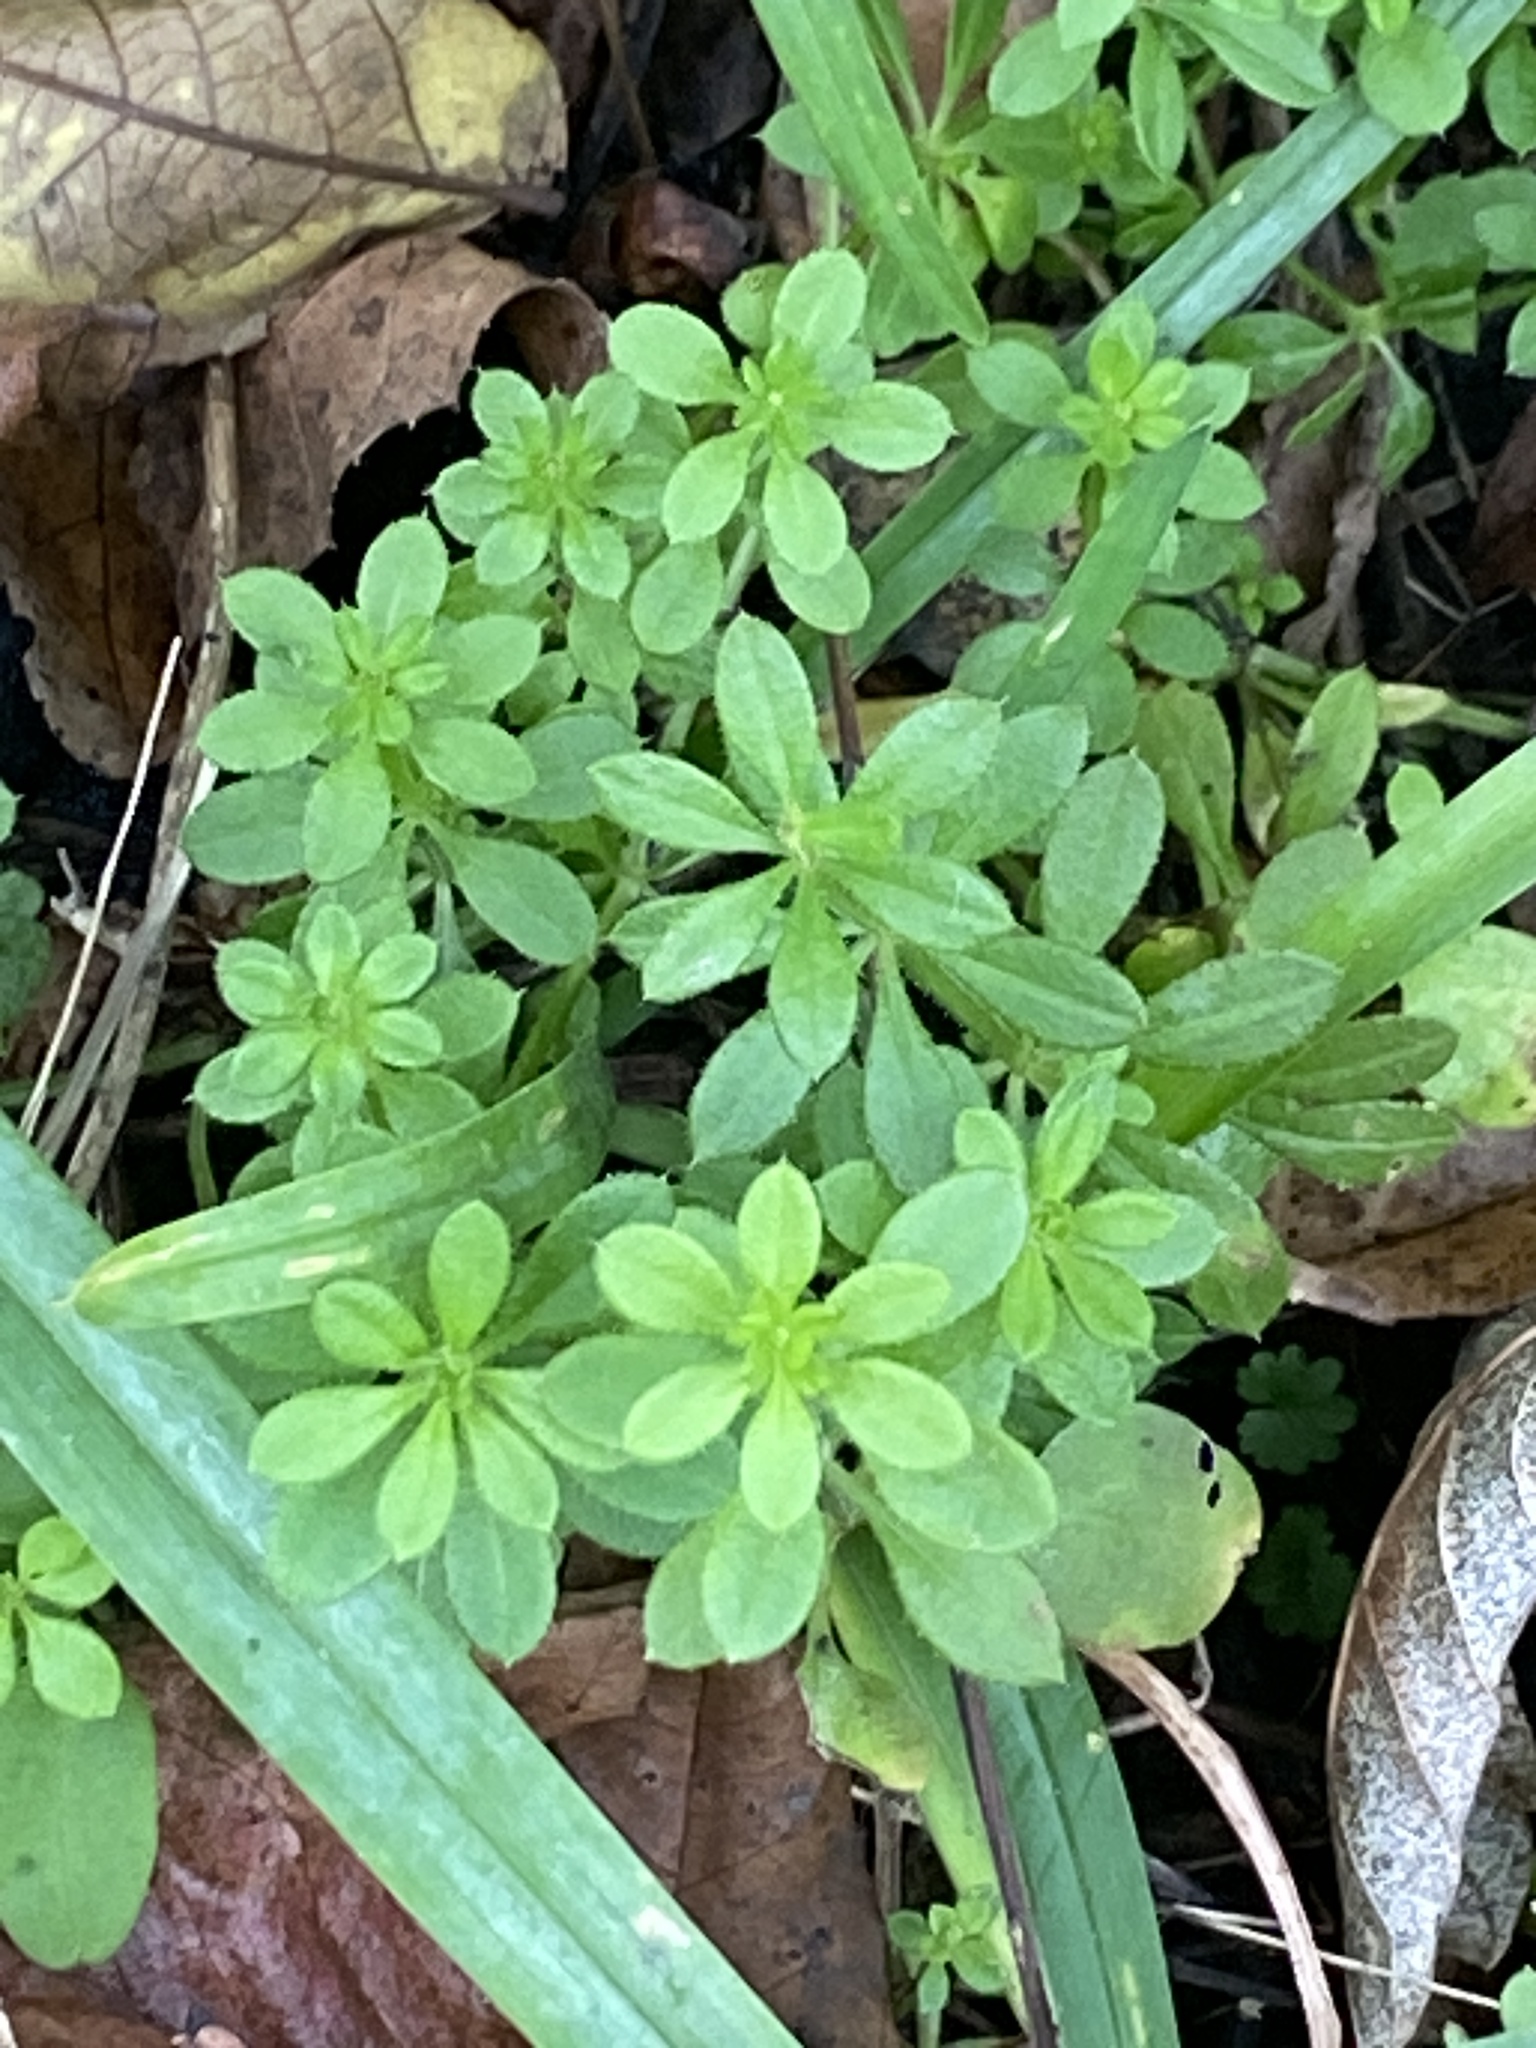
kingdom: Plantae
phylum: Tracheophyta
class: Magnoliopsida
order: Gentianales
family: Rubiaceae
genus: Galium
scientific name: Galium aparine
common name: Cleavers
